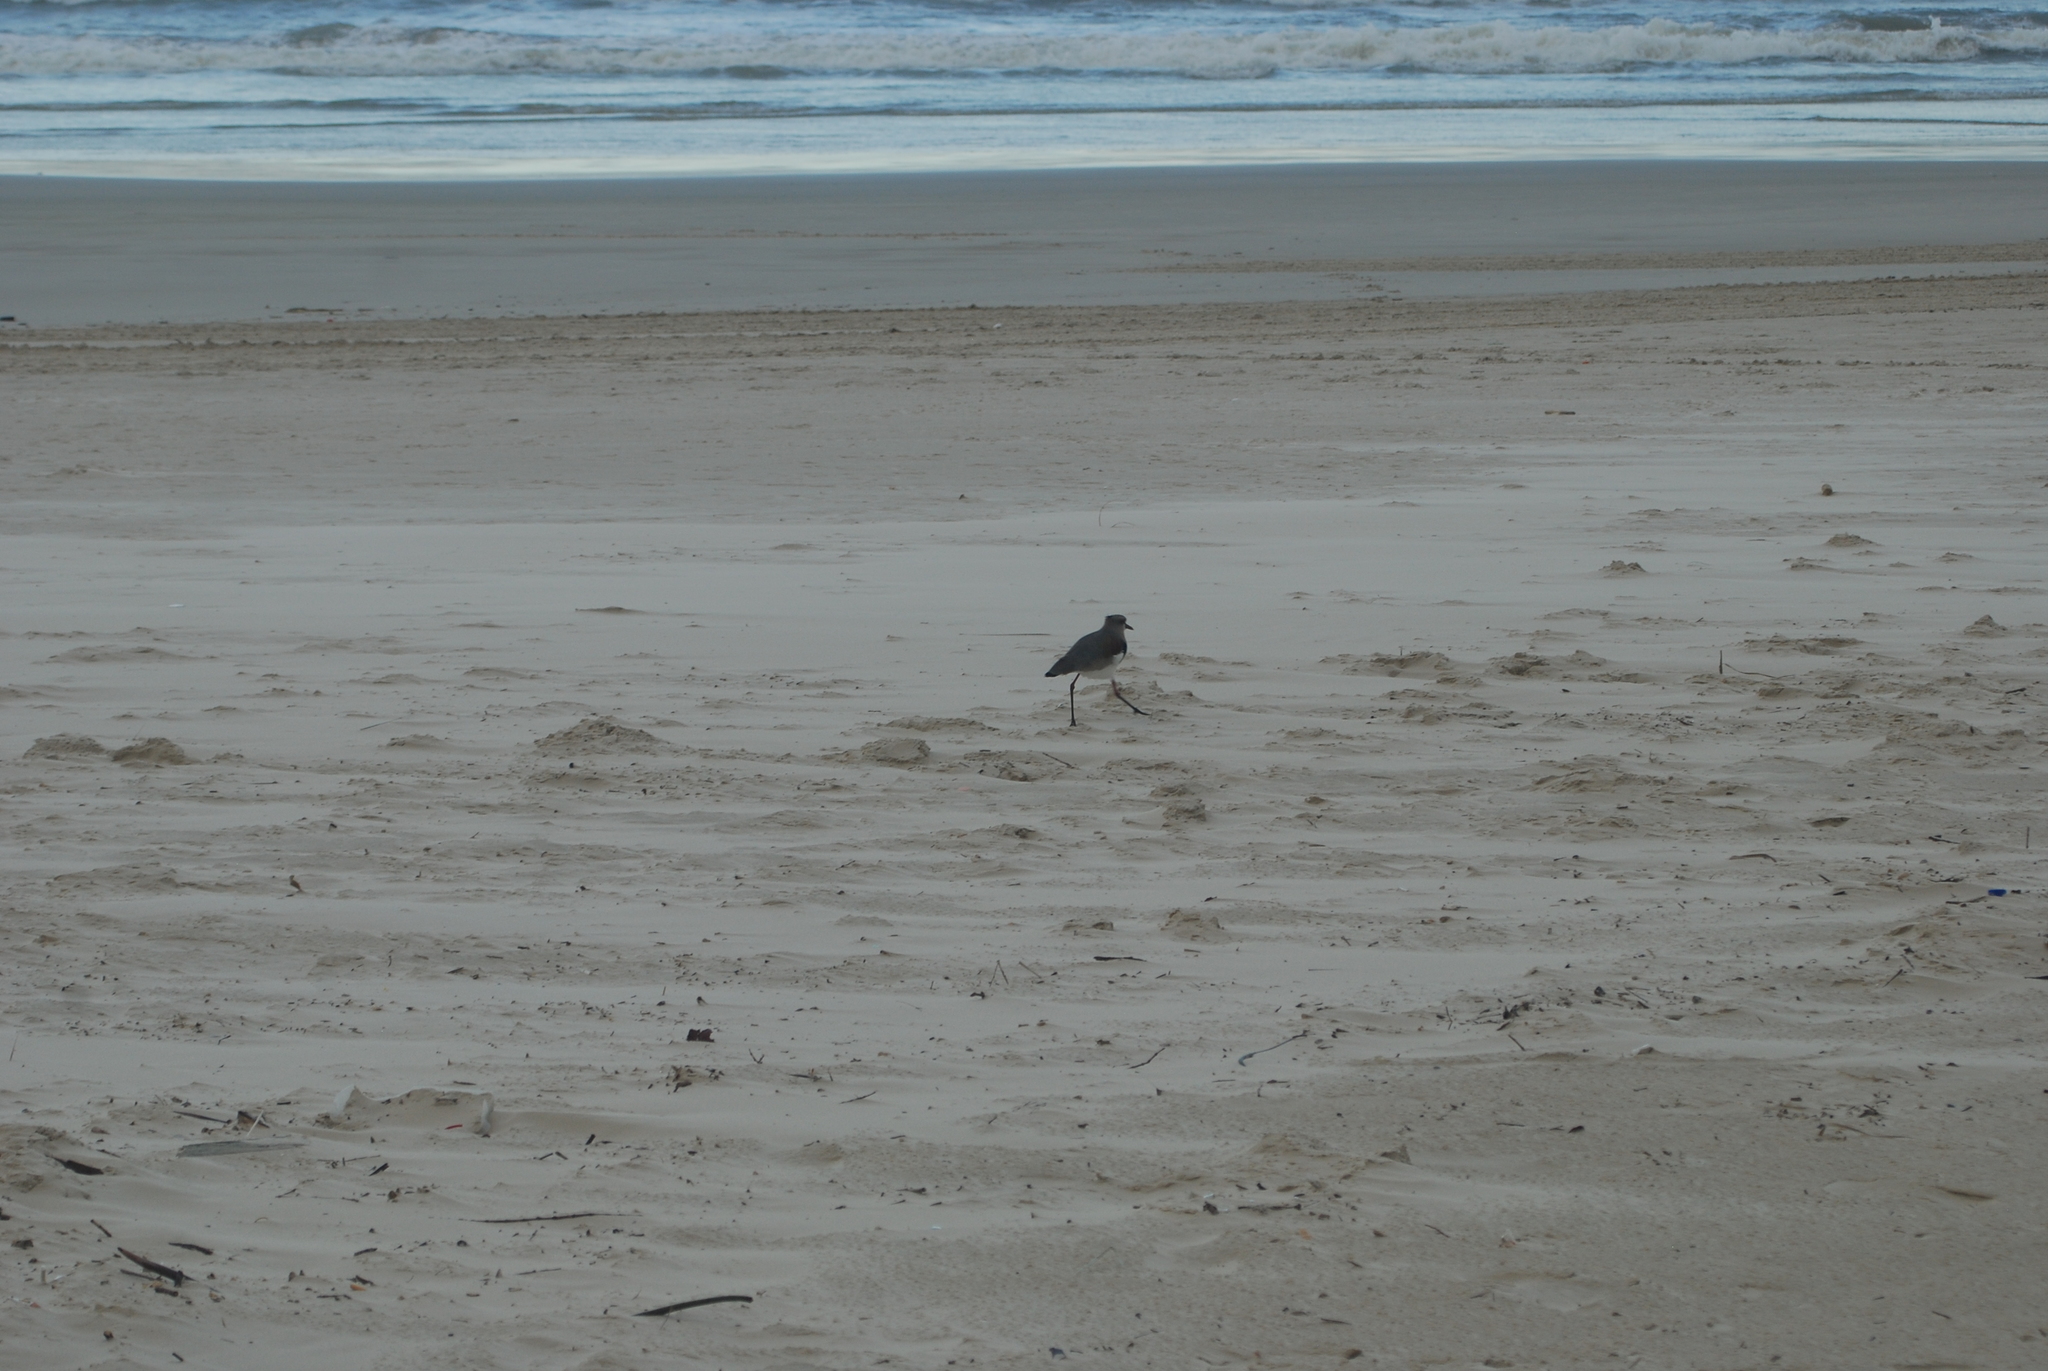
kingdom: Animalia
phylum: Chordata
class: Aves
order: Charadriiformes
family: Charadriidae
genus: Vanellus
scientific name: Vanellus chilensis
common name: Southern lapwing
